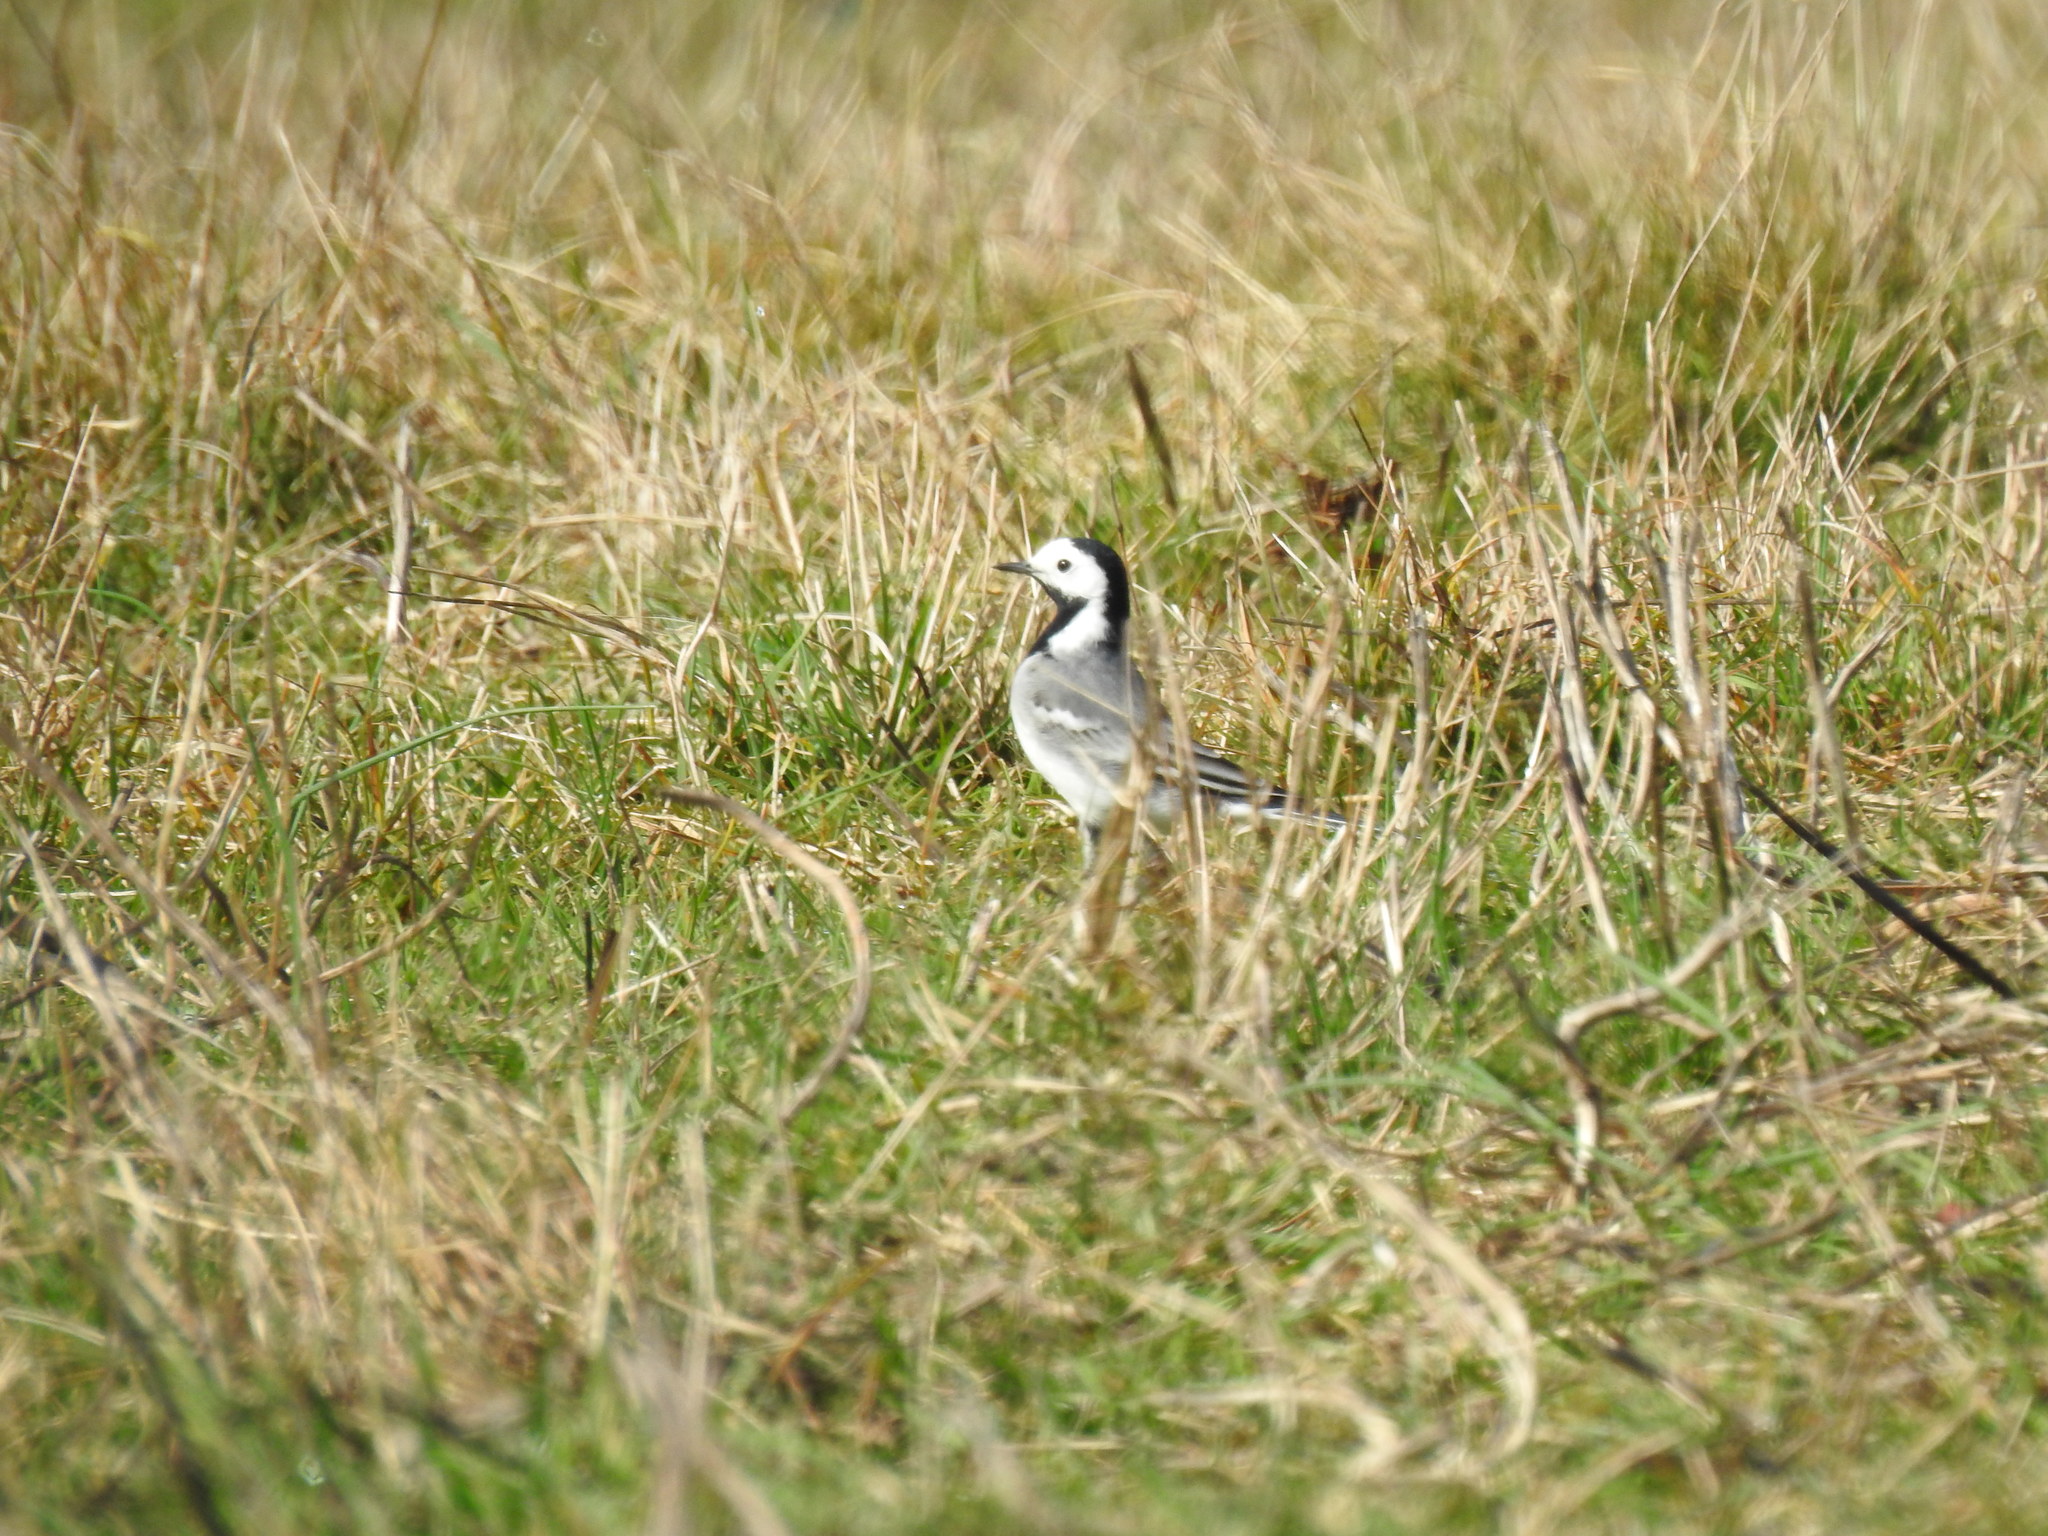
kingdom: Animalia
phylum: Chordata
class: Aves
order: Passeriformes
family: Motacillidae
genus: Motacilla
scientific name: Motacilla alba
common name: White wagtail
